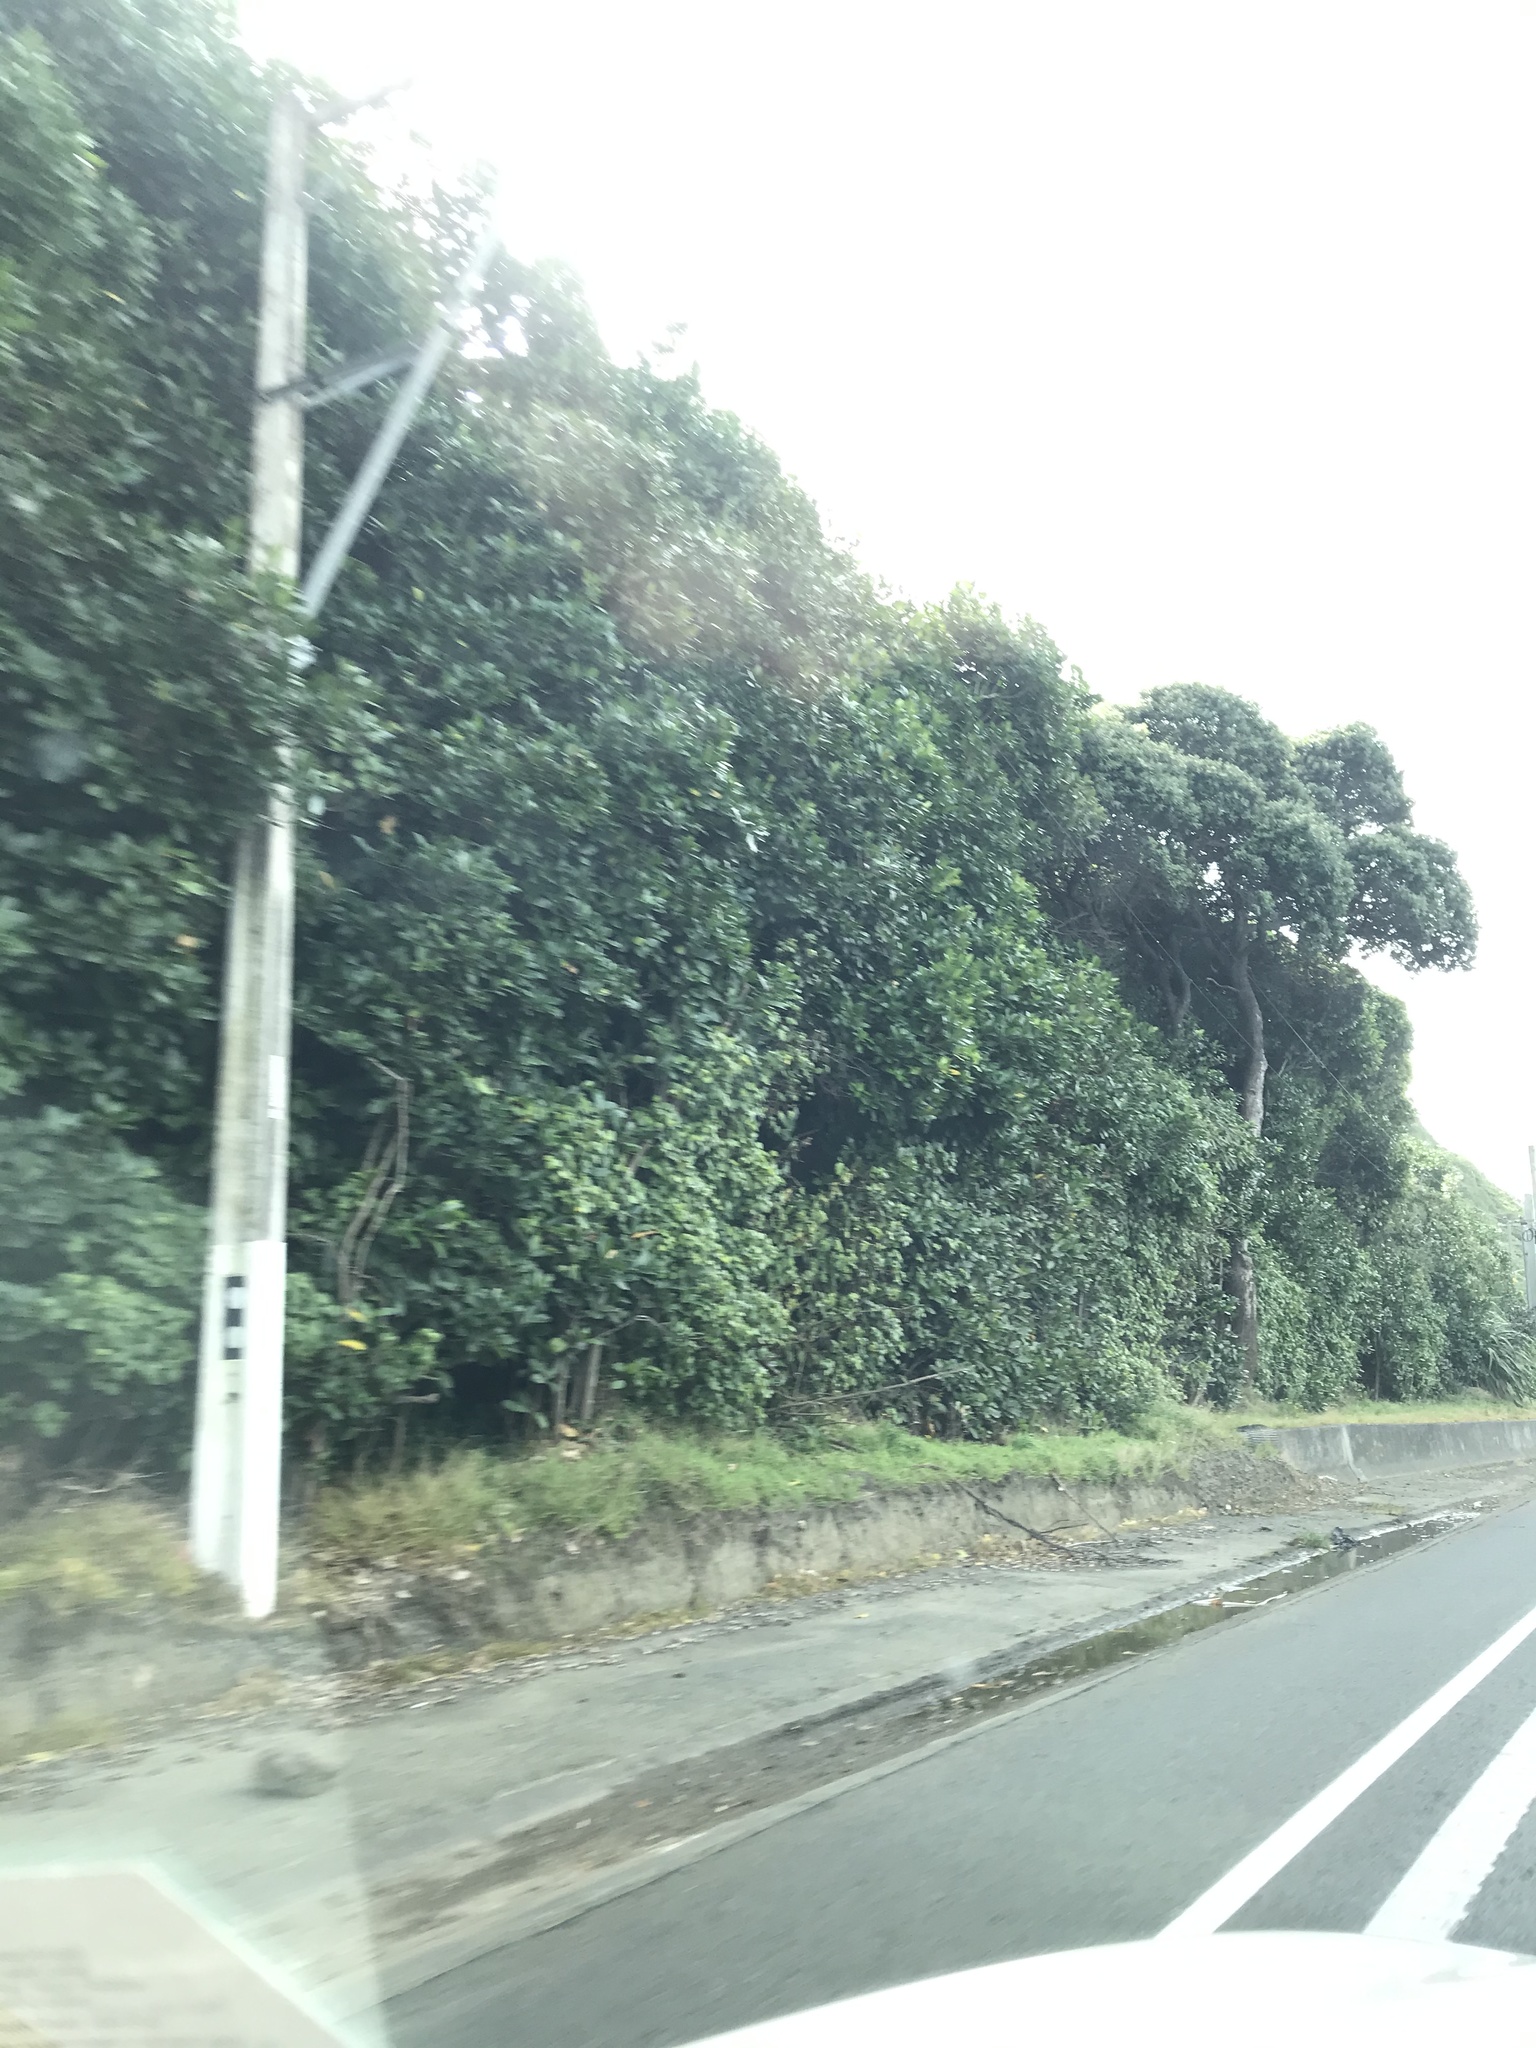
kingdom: Plantae
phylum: Tracheophyta
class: Magnoliopsida
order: Cucurbitales
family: Corynocarpaceae
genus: Corynocarpus
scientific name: Corynocarpus laevigatus
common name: New zealand laurel
